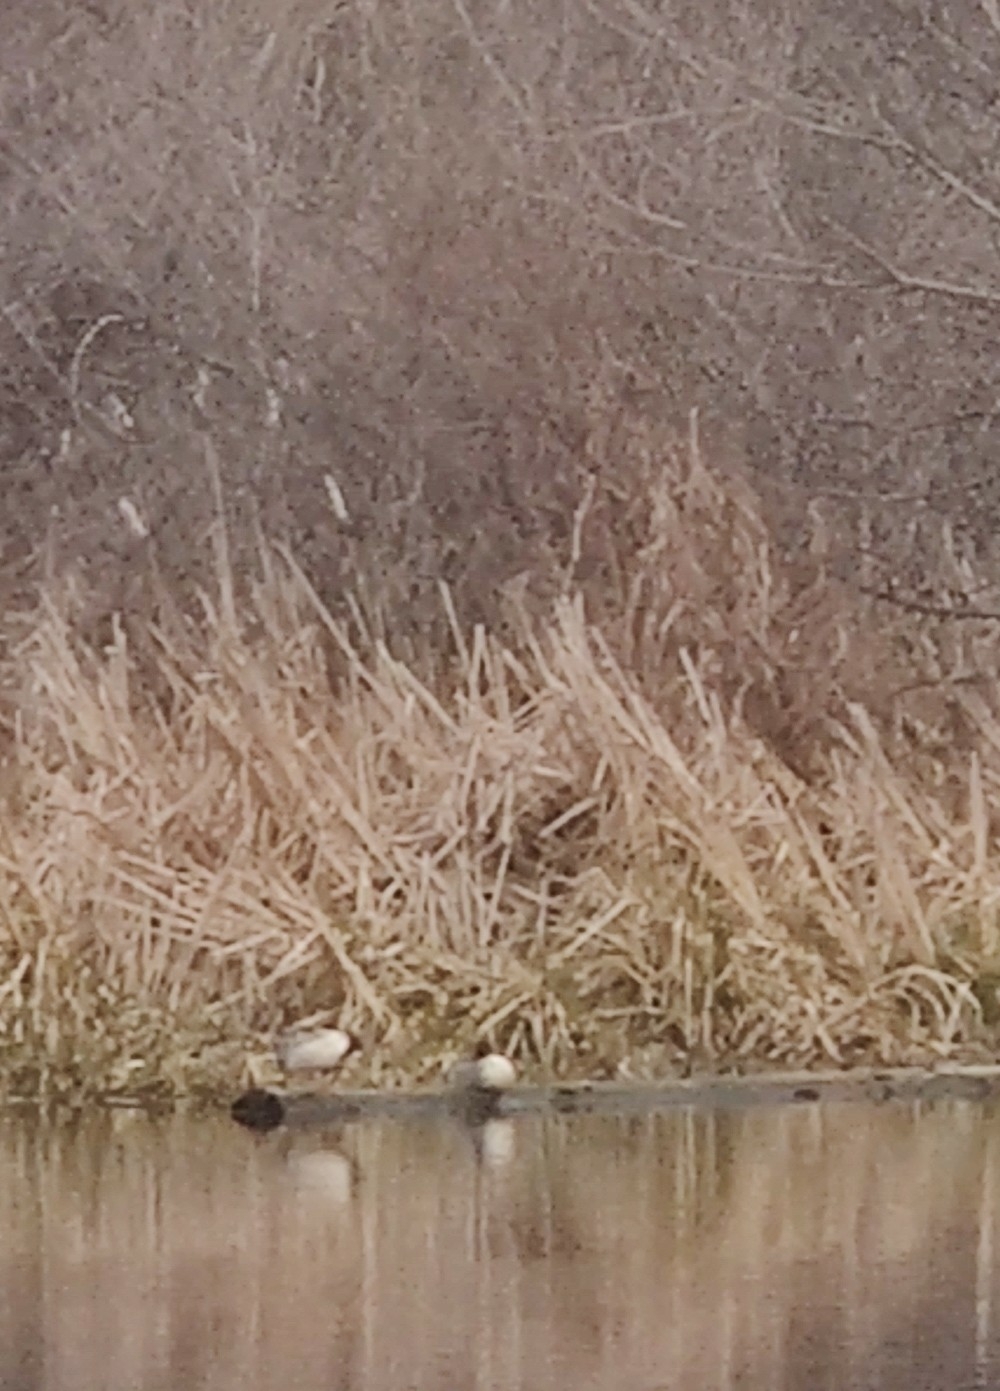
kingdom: Animalia
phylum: Chordata
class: Aves
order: Anseriformes
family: Anatidae
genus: Mergus
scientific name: Mergus merganser
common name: Common merganser
